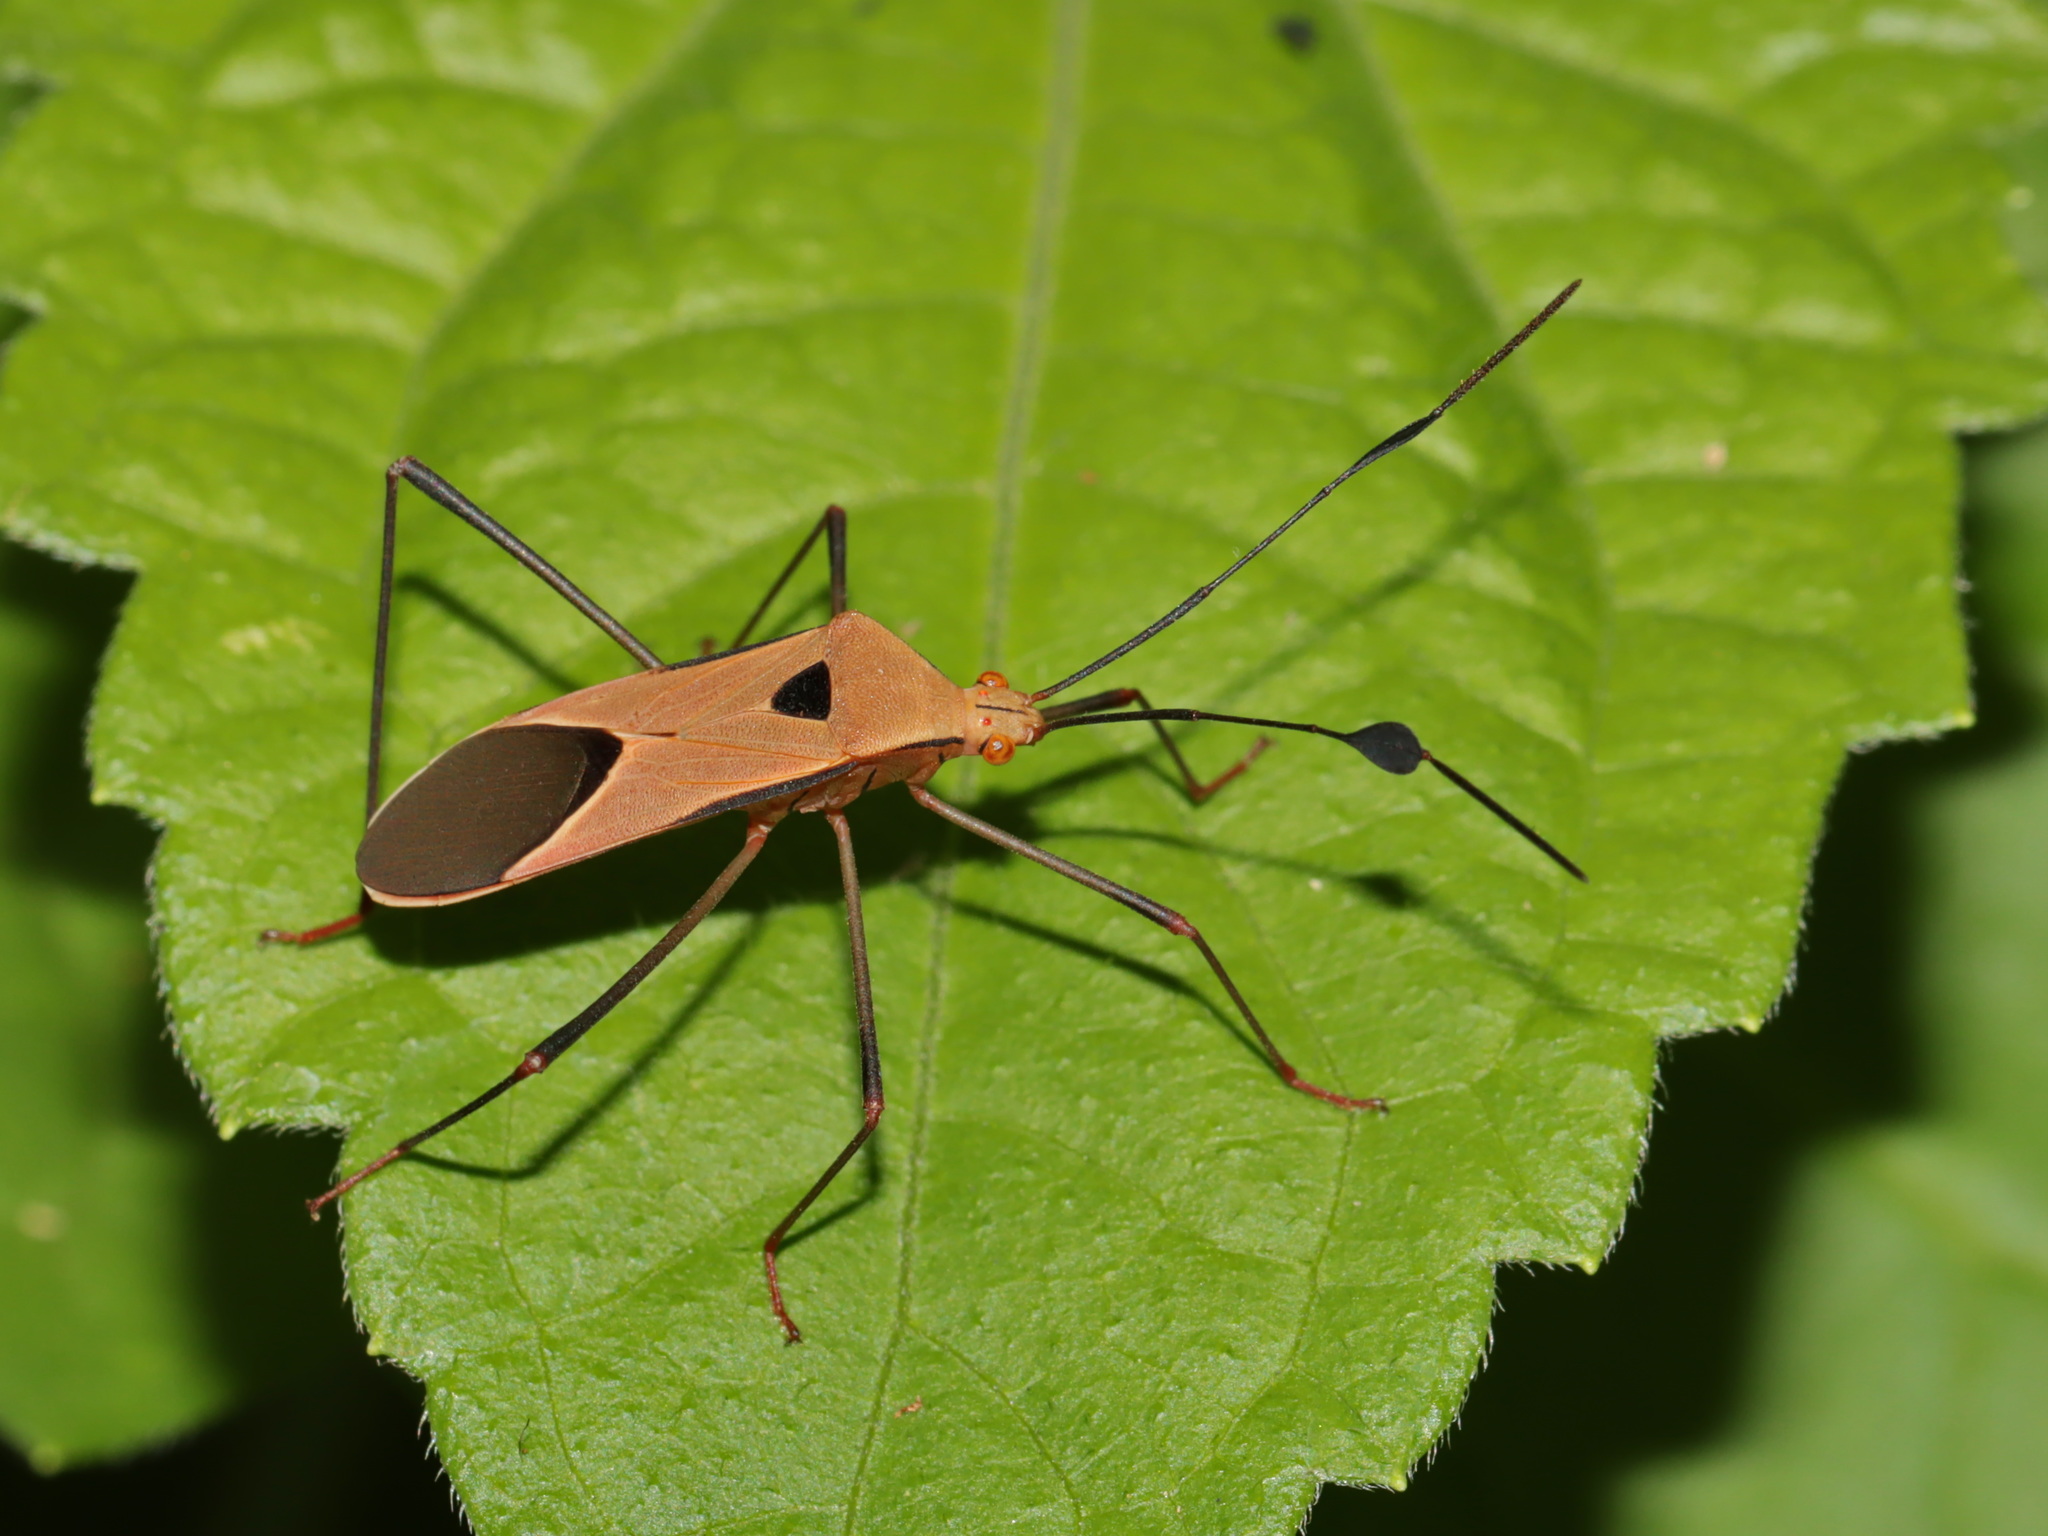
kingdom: Animalia
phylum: Arthropoda
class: Insecta
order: Hemiptera
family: Coreidae
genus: Mecocnemis
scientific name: Mecocnemis scutellaris
